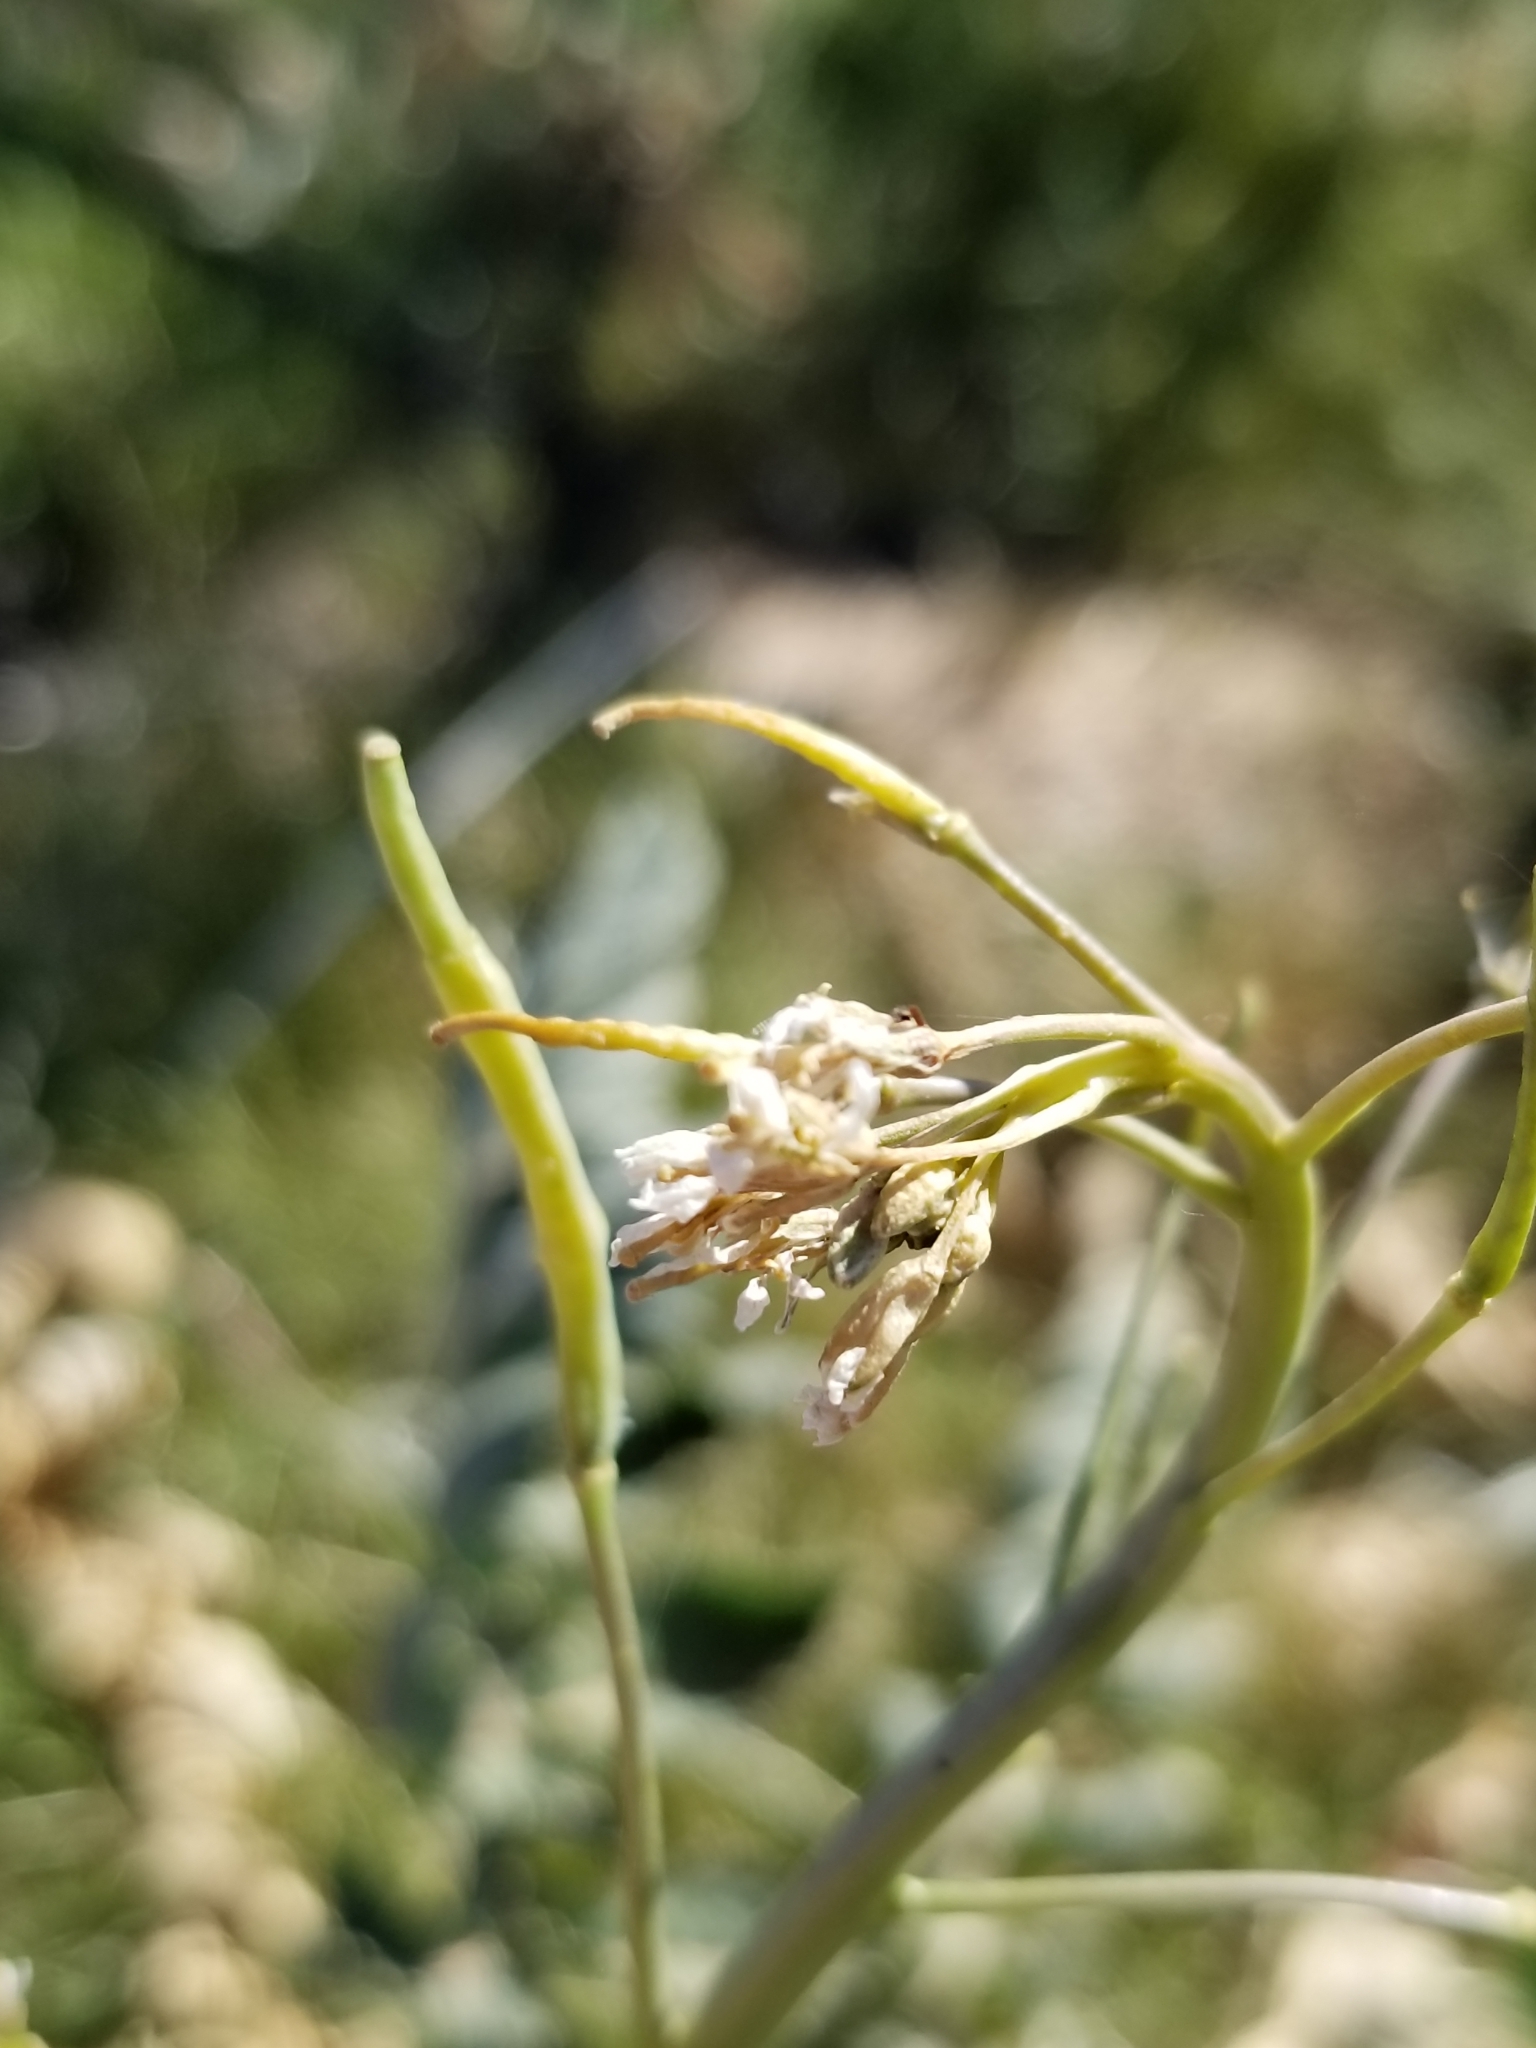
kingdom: Plantae
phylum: Tracheophyta
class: Magnoliopsida
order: Brassicales
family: Brassicaceae
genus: Brassica
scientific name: Brassica tournefortii
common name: Pale cabbage
